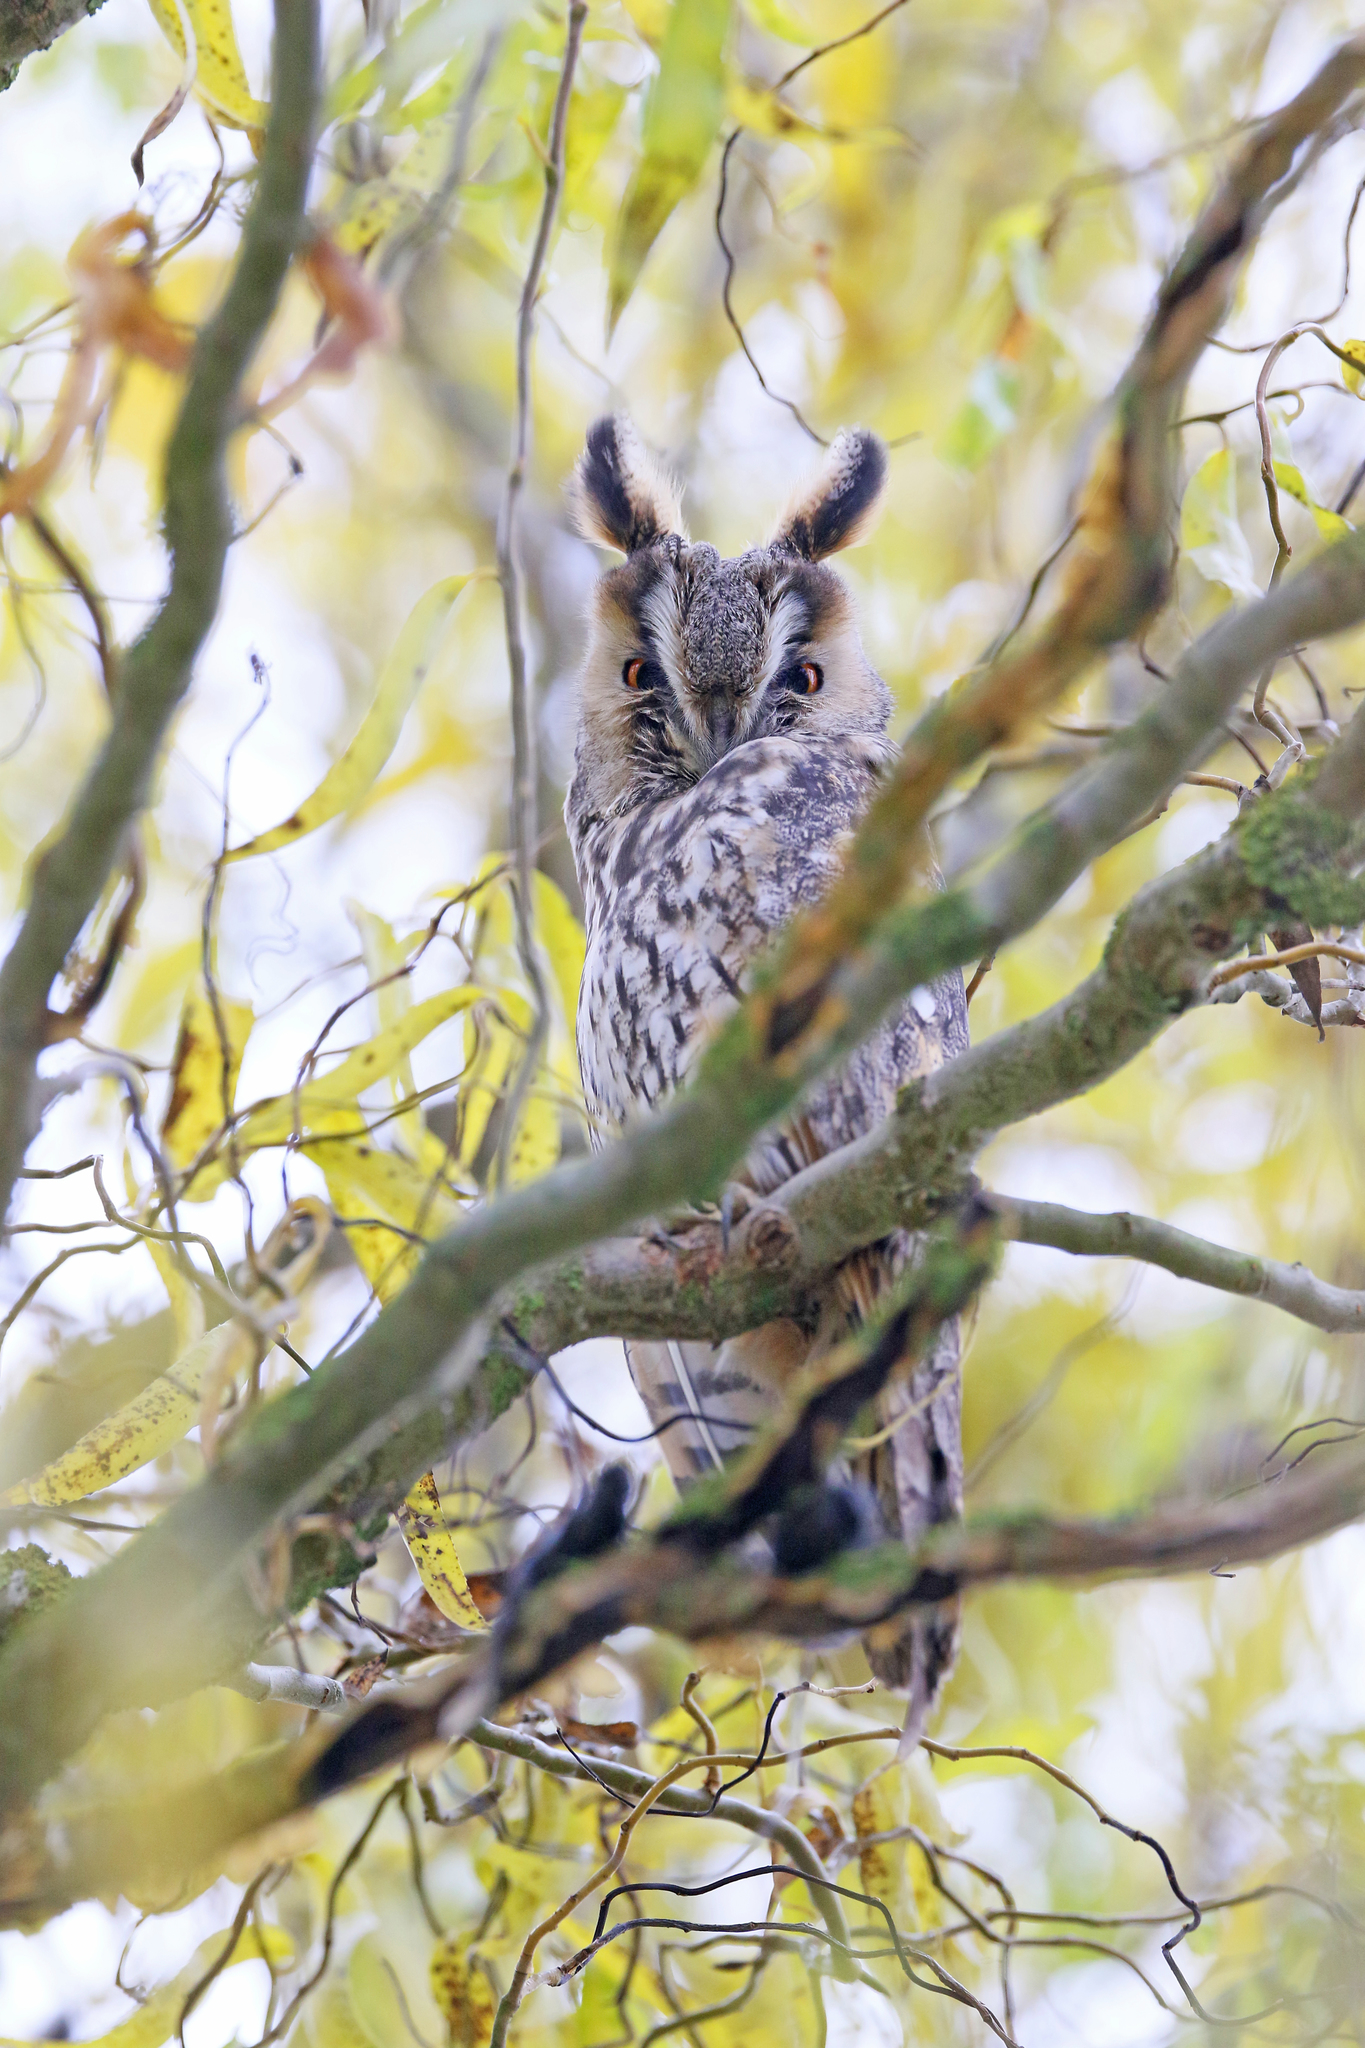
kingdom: Animalia
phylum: Chordata
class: Aves
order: Strigiformes
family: Strigidae
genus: Asio
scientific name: Asio otus
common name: Long-eared owl
